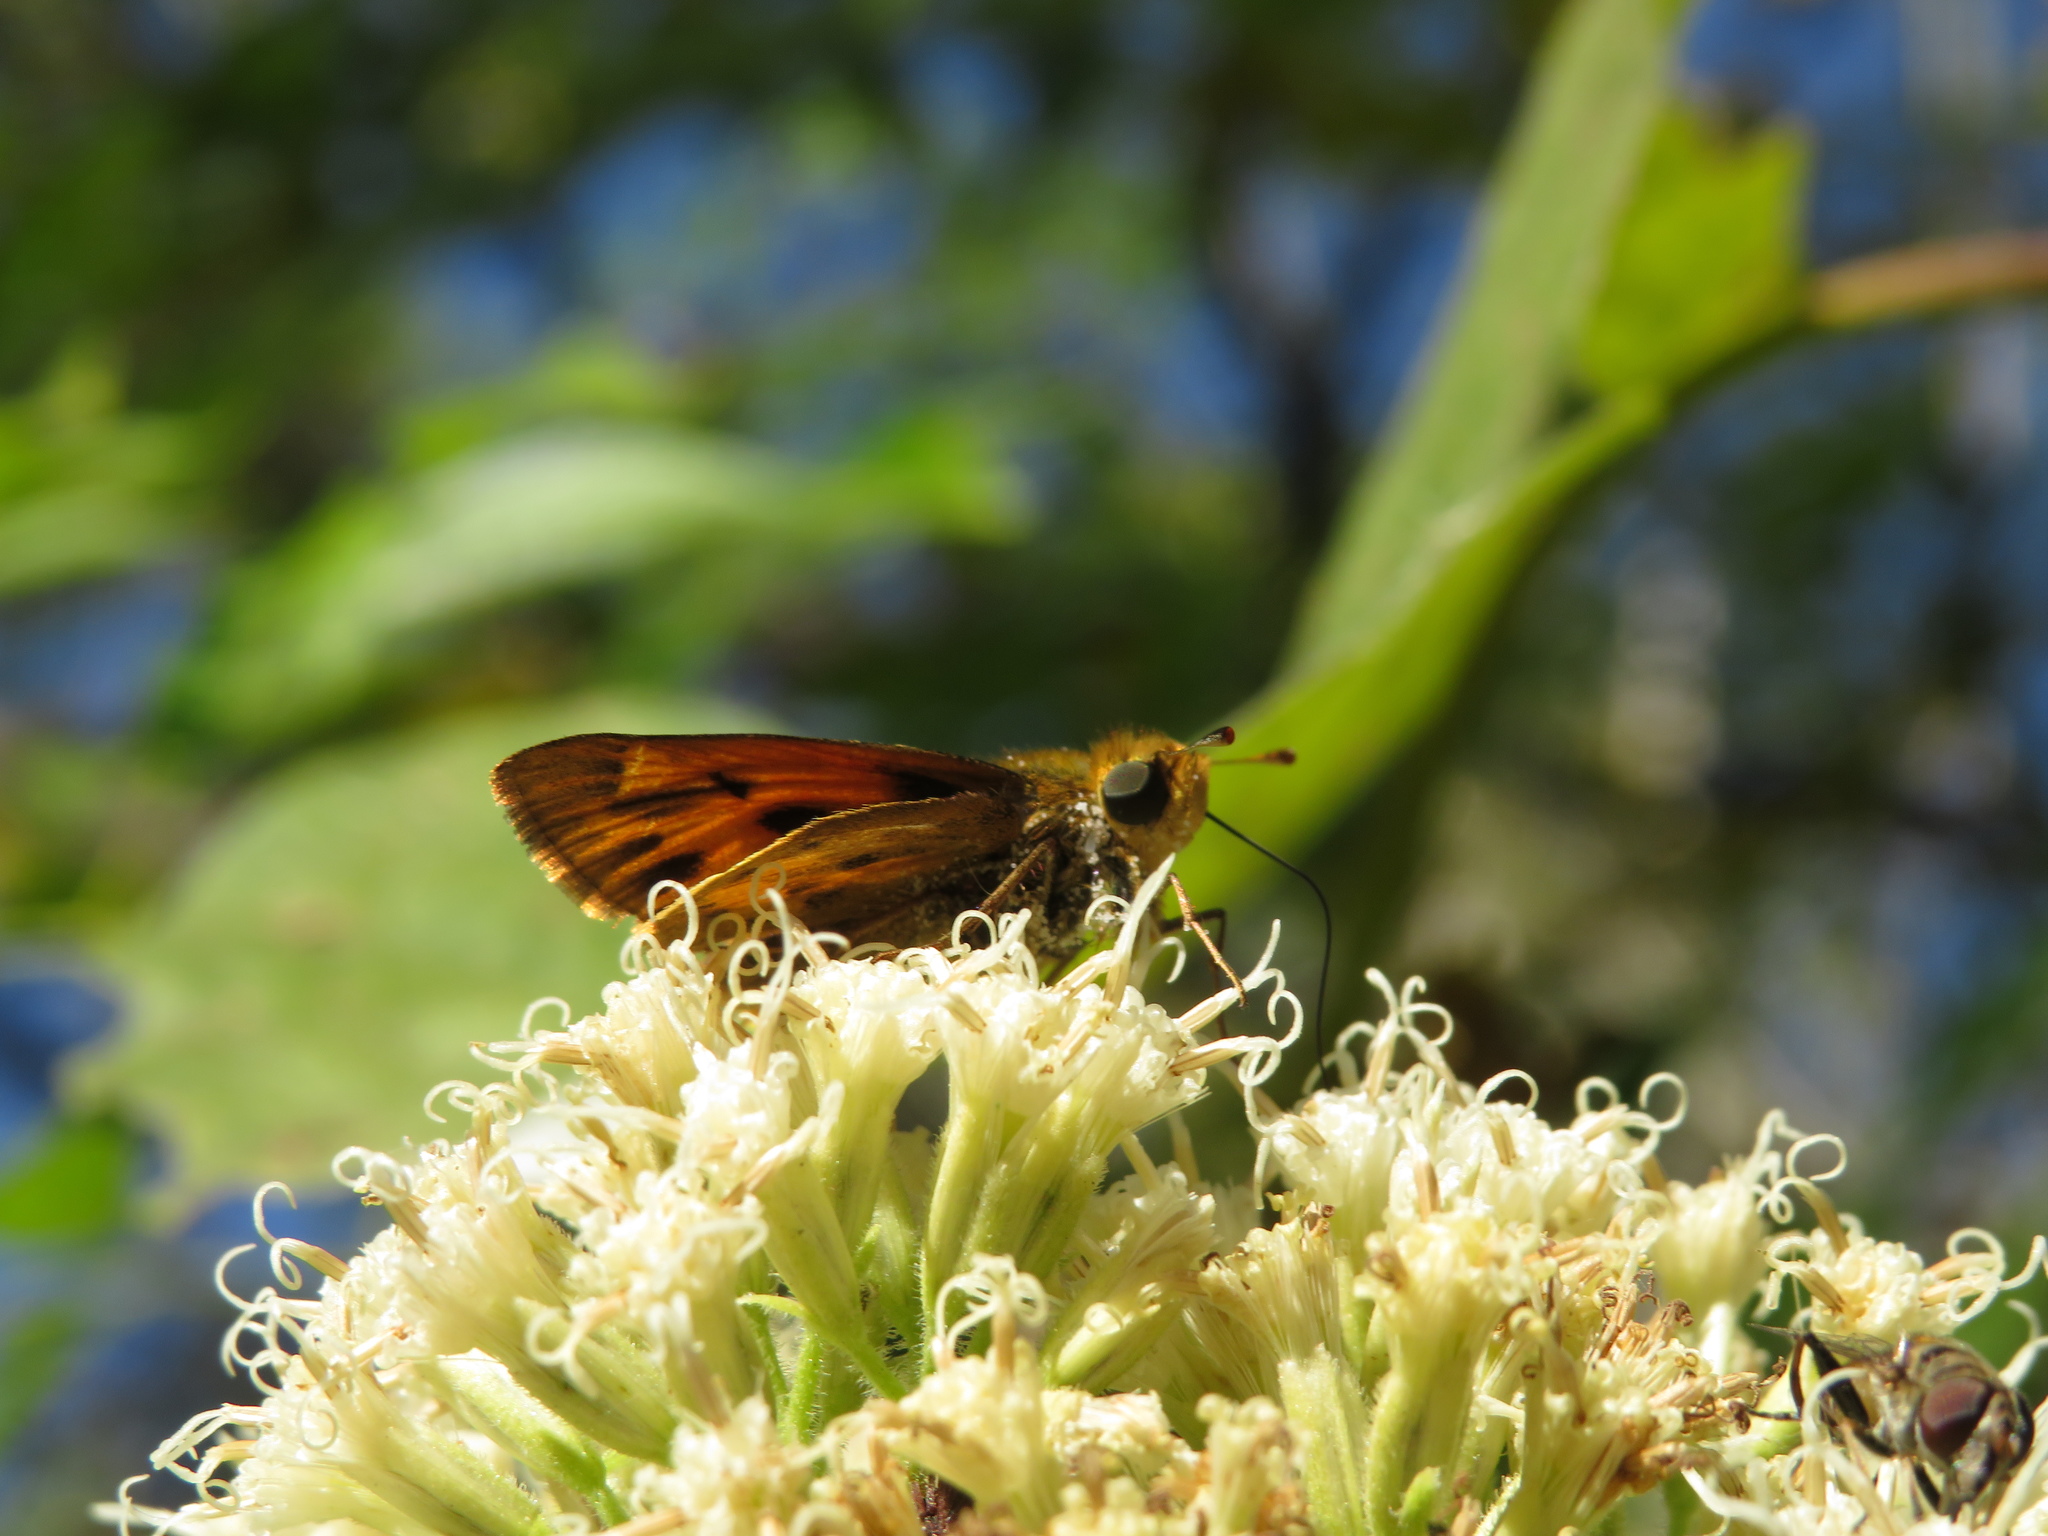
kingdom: Animalia
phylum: Arthropoda
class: Insecta
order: Lepidoptera
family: Hesperiidae
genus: Hylephila
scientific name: Hylephila phyleus
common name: Fiery skipper
